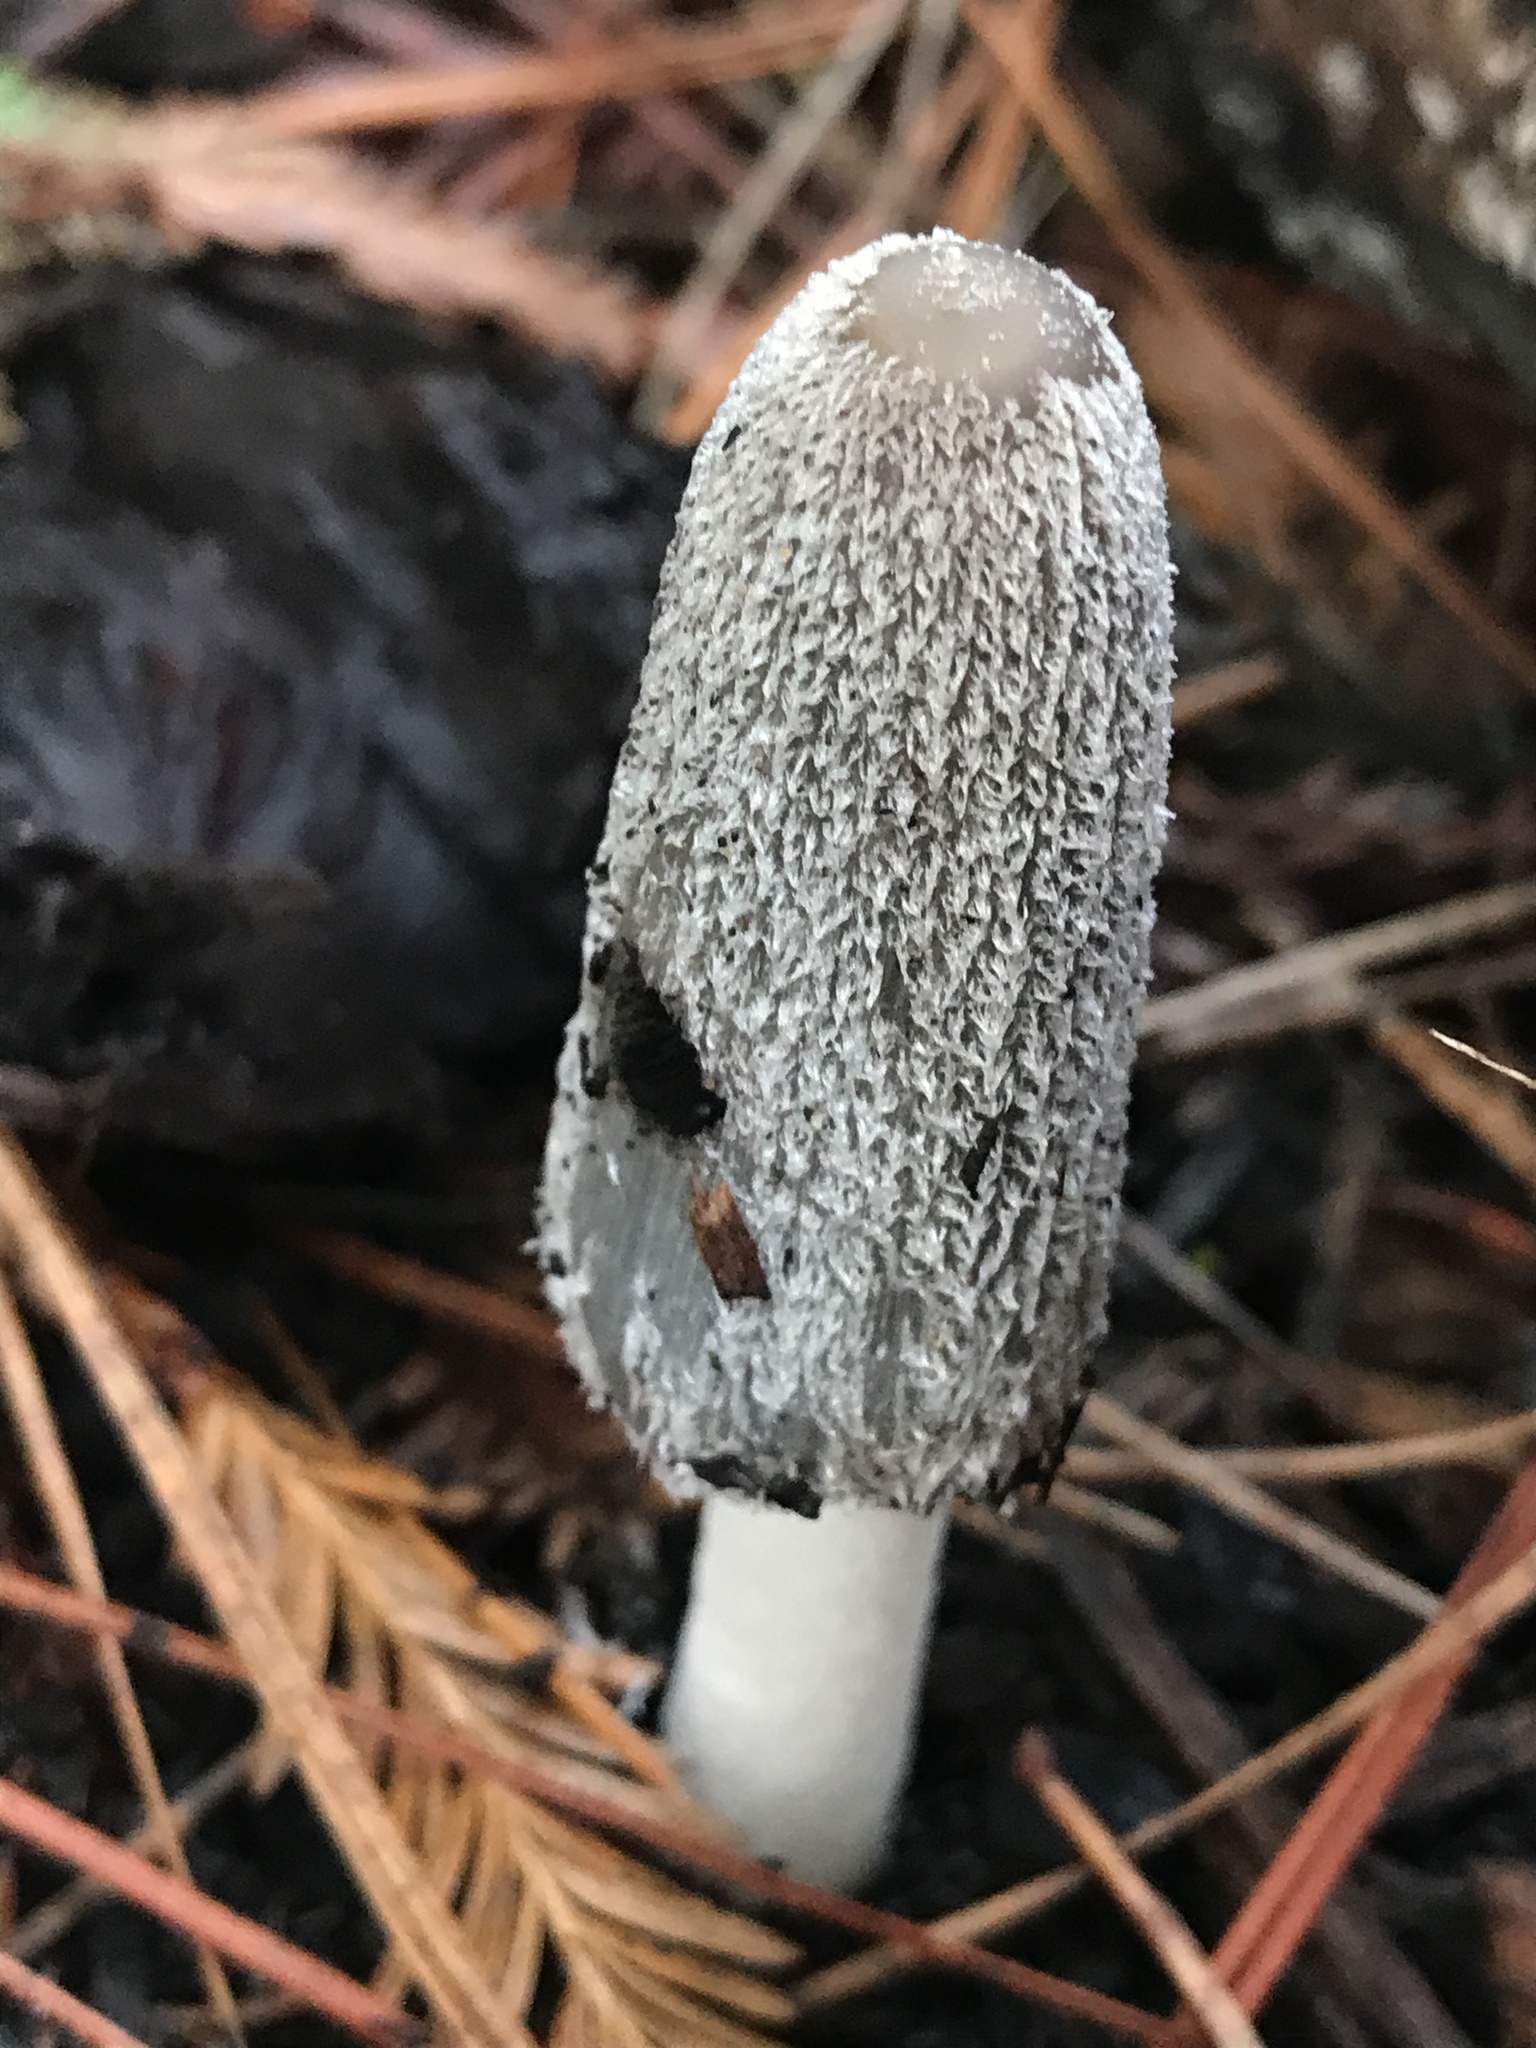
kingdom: Fungi
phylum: Basidiomycota
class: Agaricomycetes
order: Agaricales
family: Psathyrellaceae
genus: Coprinopsis
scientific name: Coprinopsis lagopus
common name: Hare'sfoot inkcap
